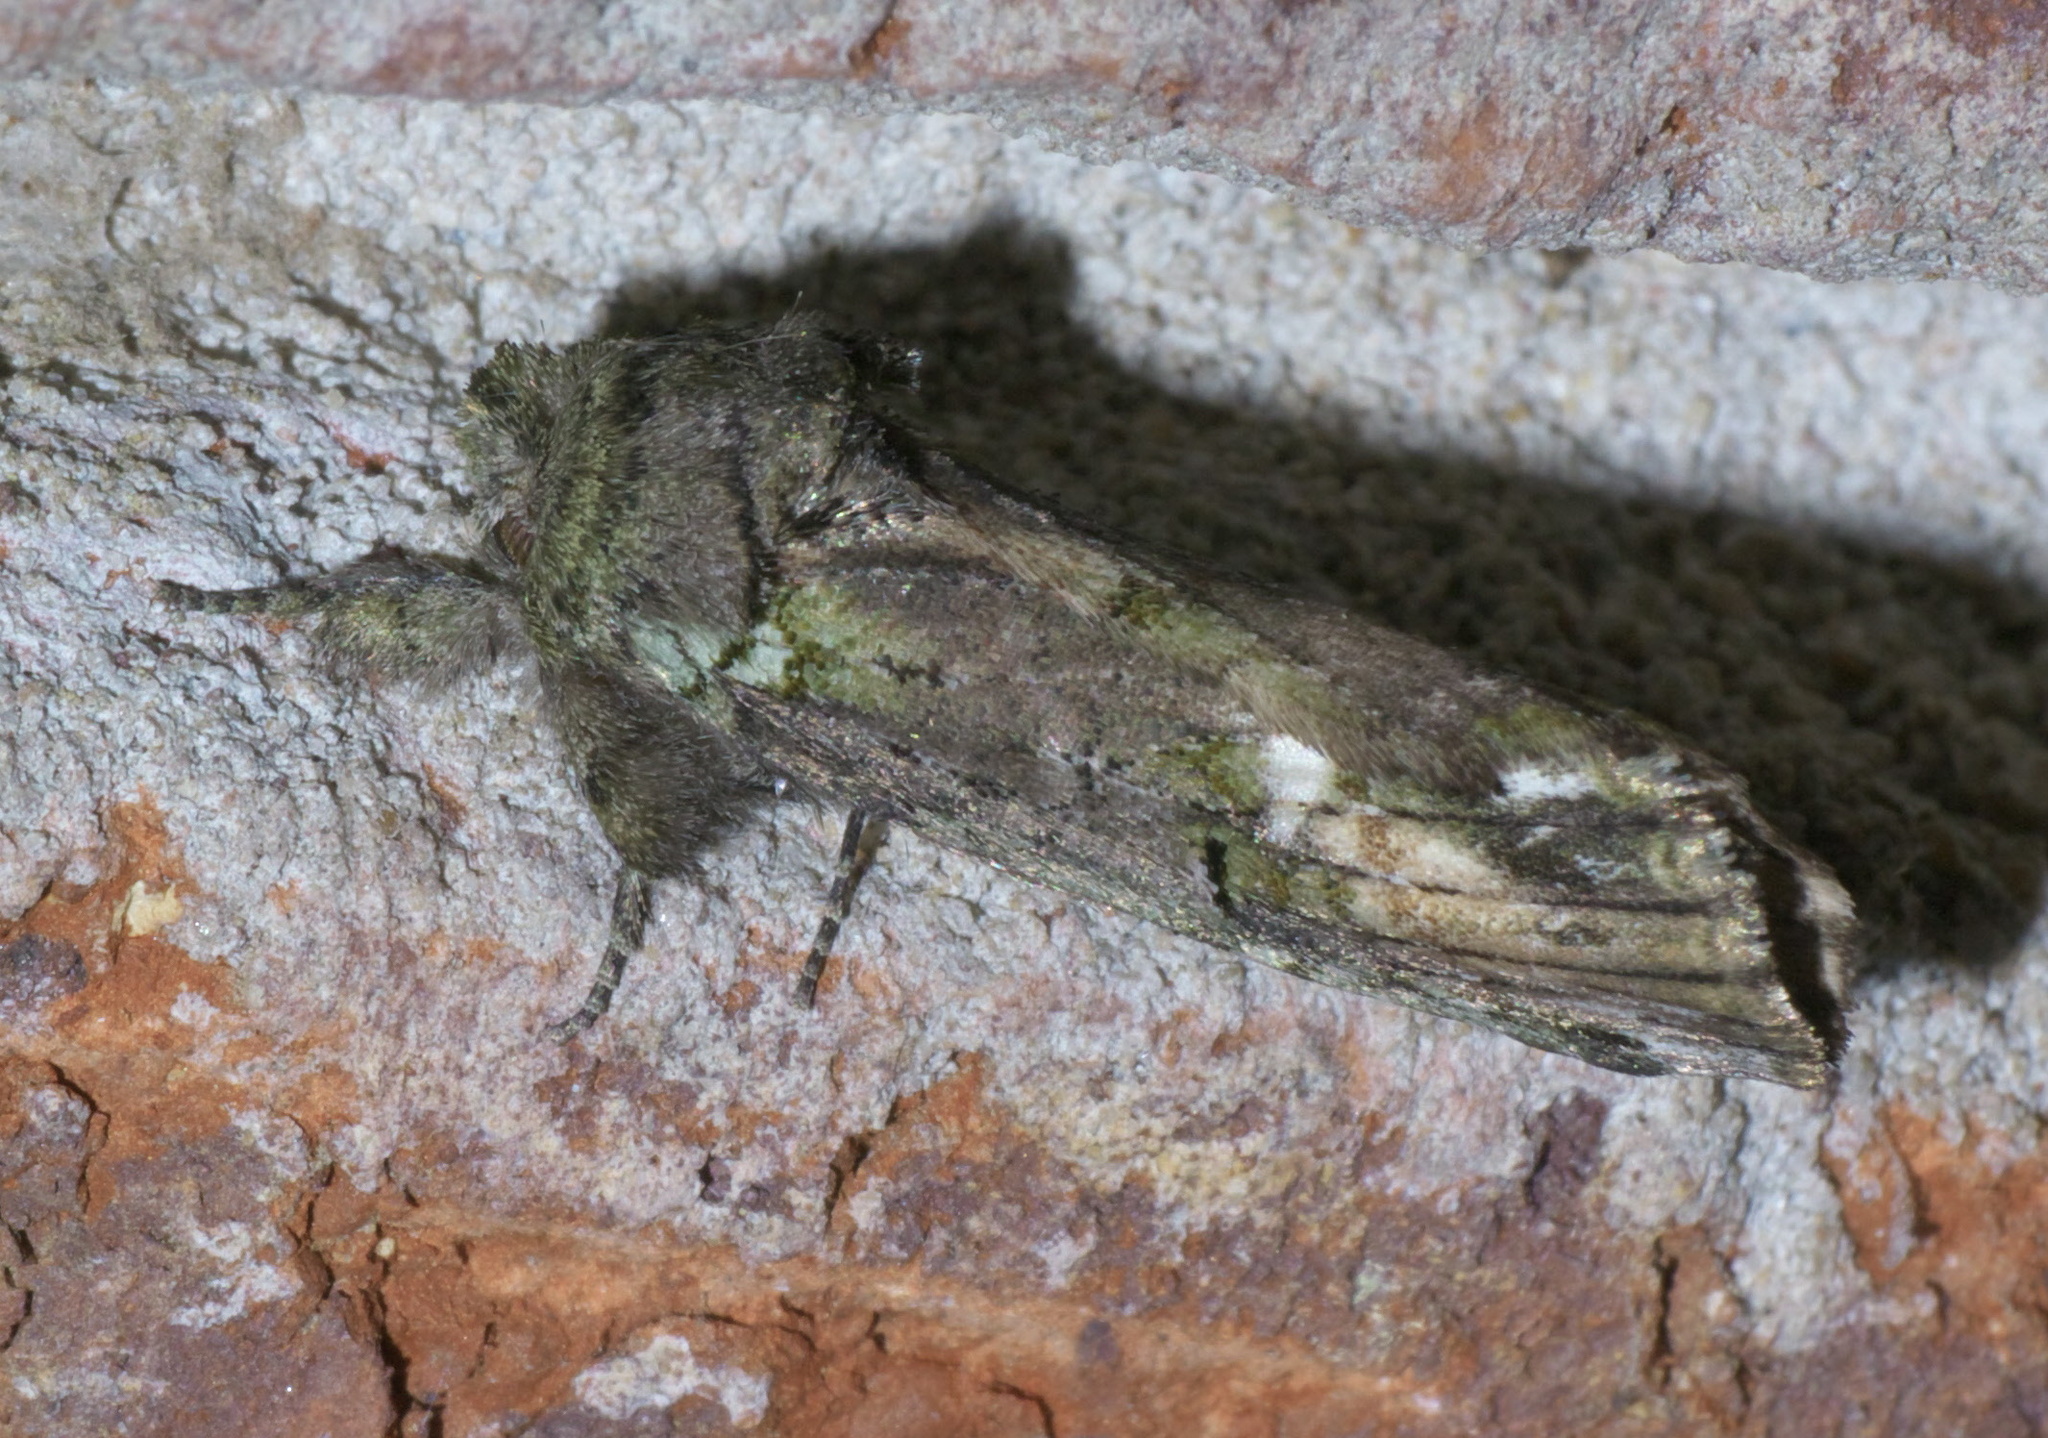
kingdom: Animalia
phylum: Arthropoda
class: Insecta
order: Lepidoptera
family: Notodontidae
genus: Schizura
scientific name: Schizura
